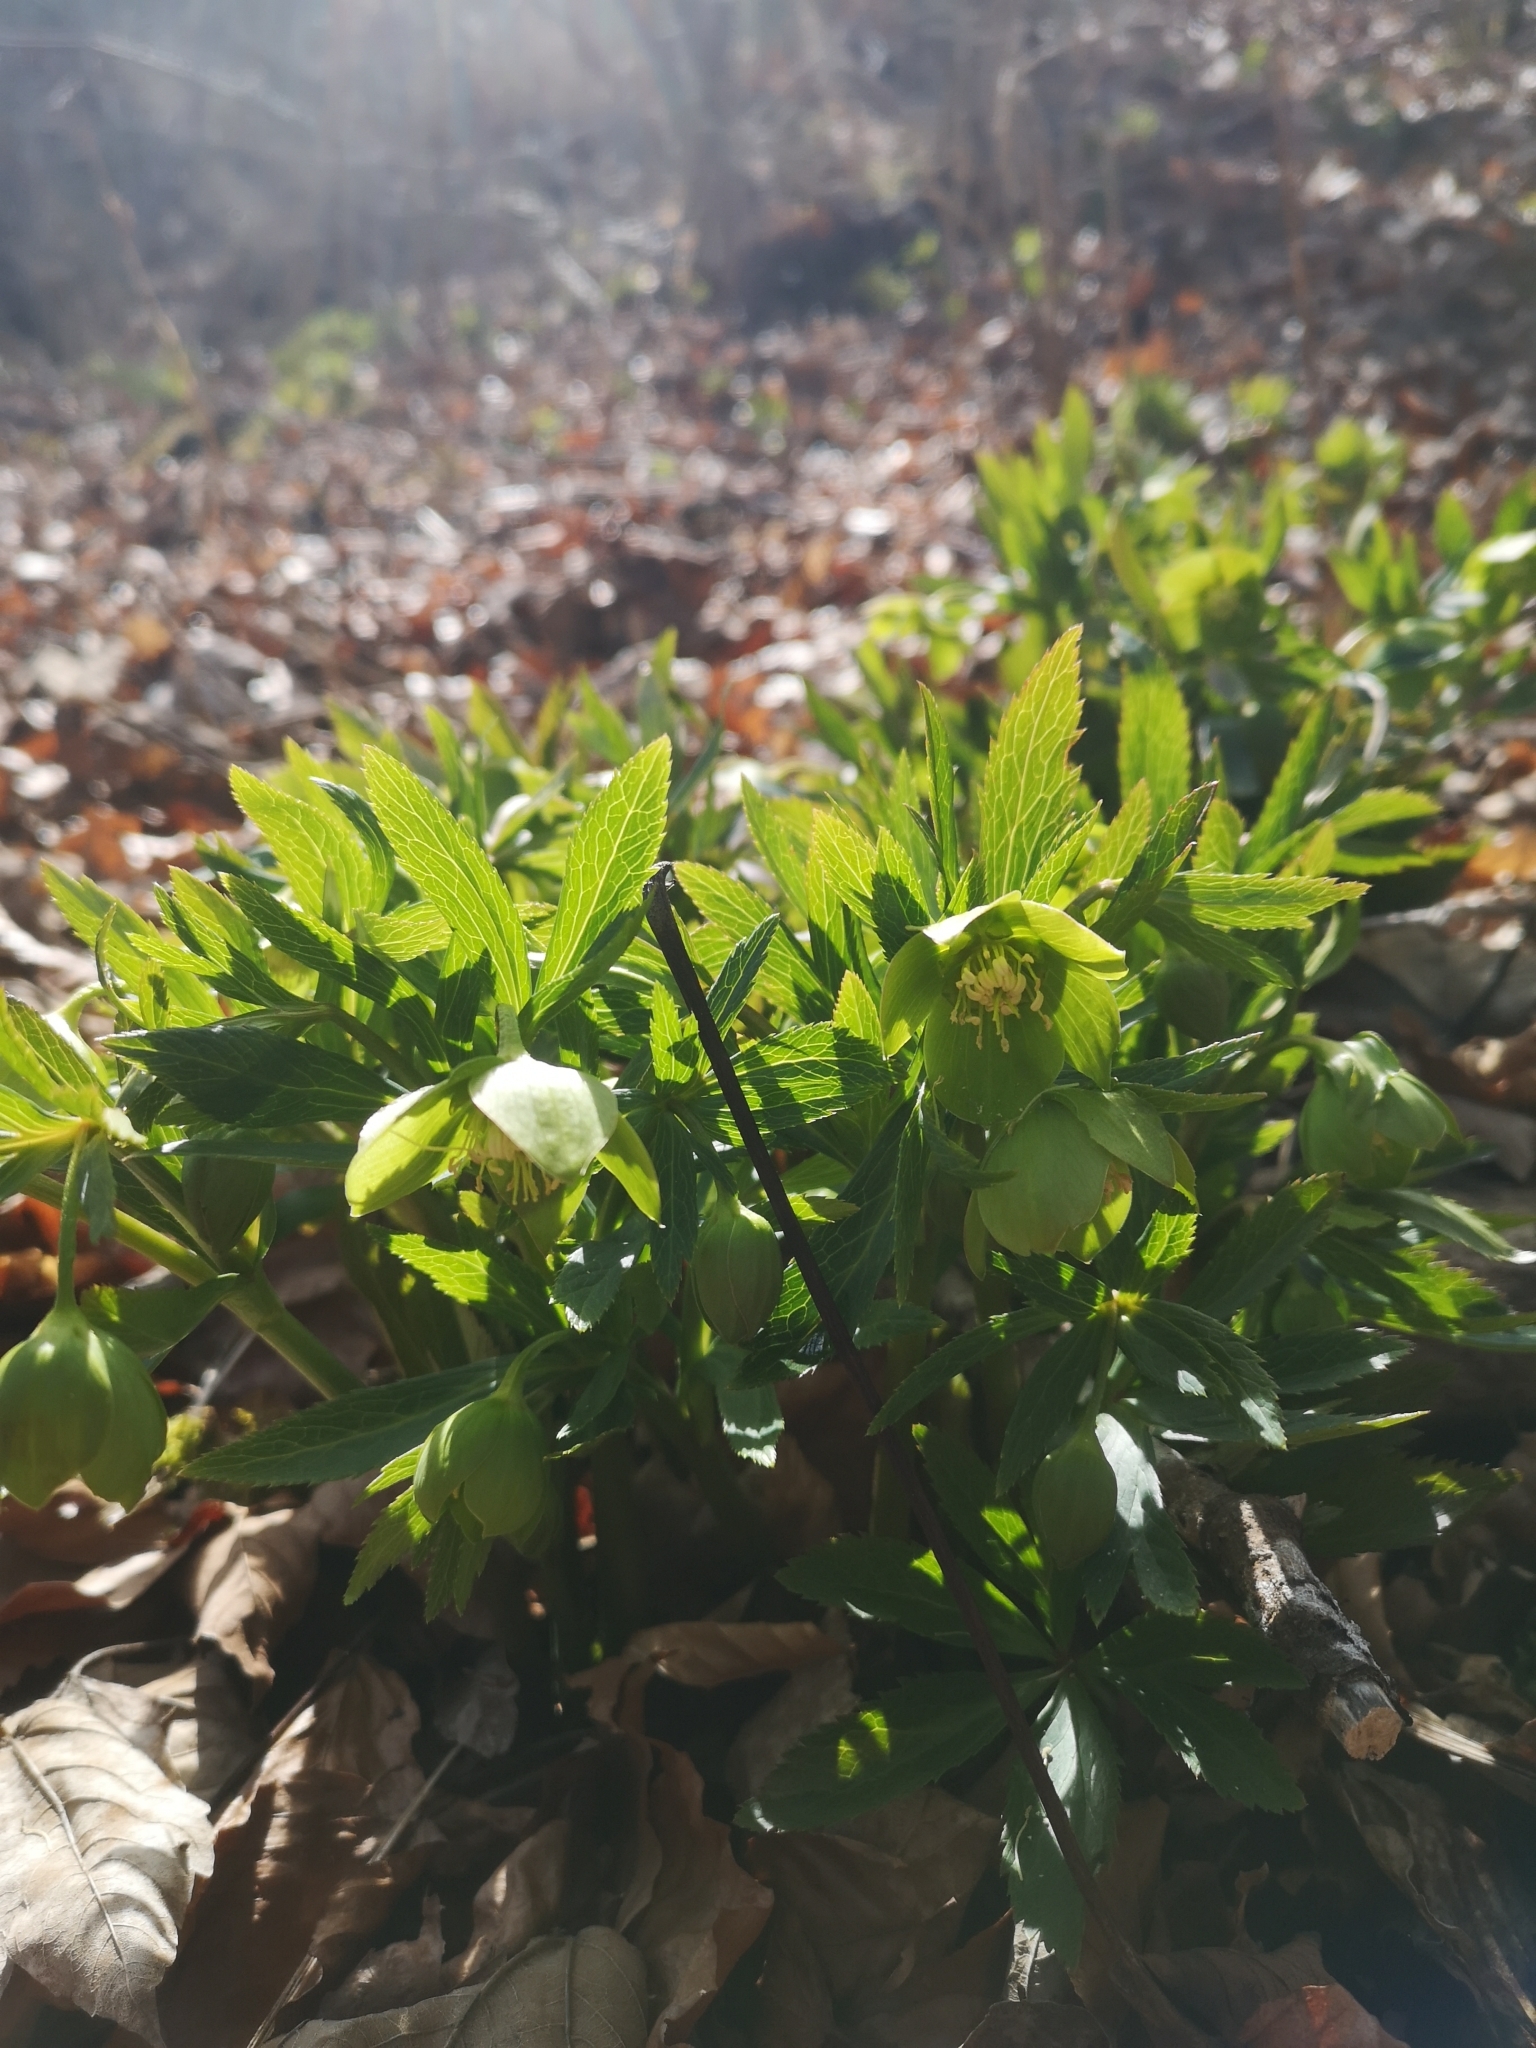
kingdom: Plantae
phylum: Tracheophyta
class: Magnoliopsida
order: Ranunculales
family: Ranunculaceae
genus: Helleborus
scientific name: Helleborus viridis
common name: Green hellebore
